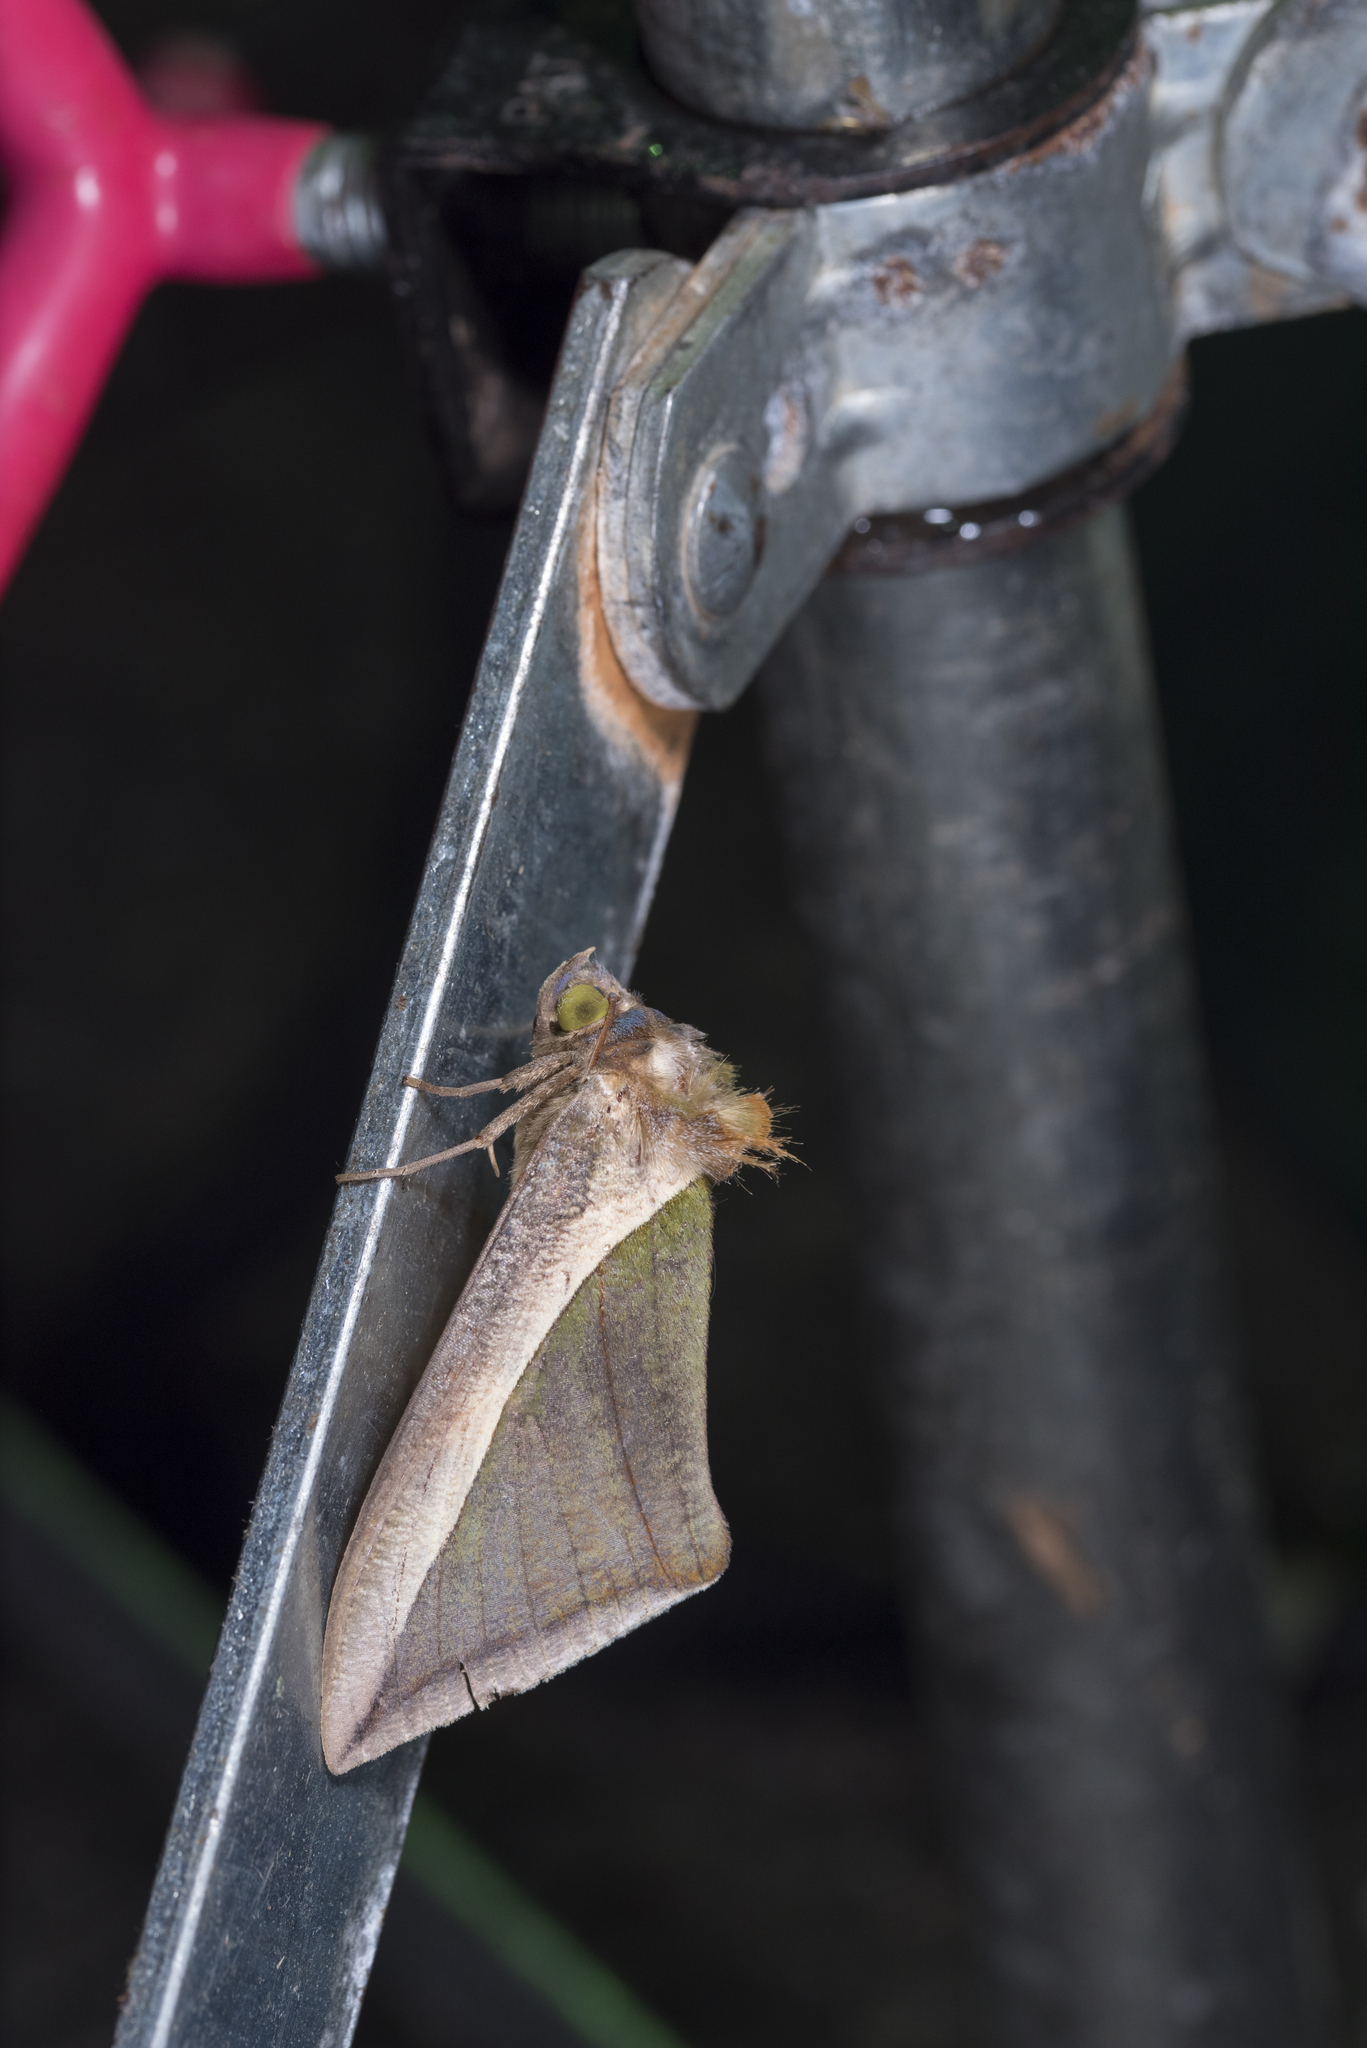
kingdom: Animalia
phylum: Arthropoda
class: Insecta
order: Lepidoptera
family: Erebidae
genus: Eudocima
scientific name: Eudocima salaminia
